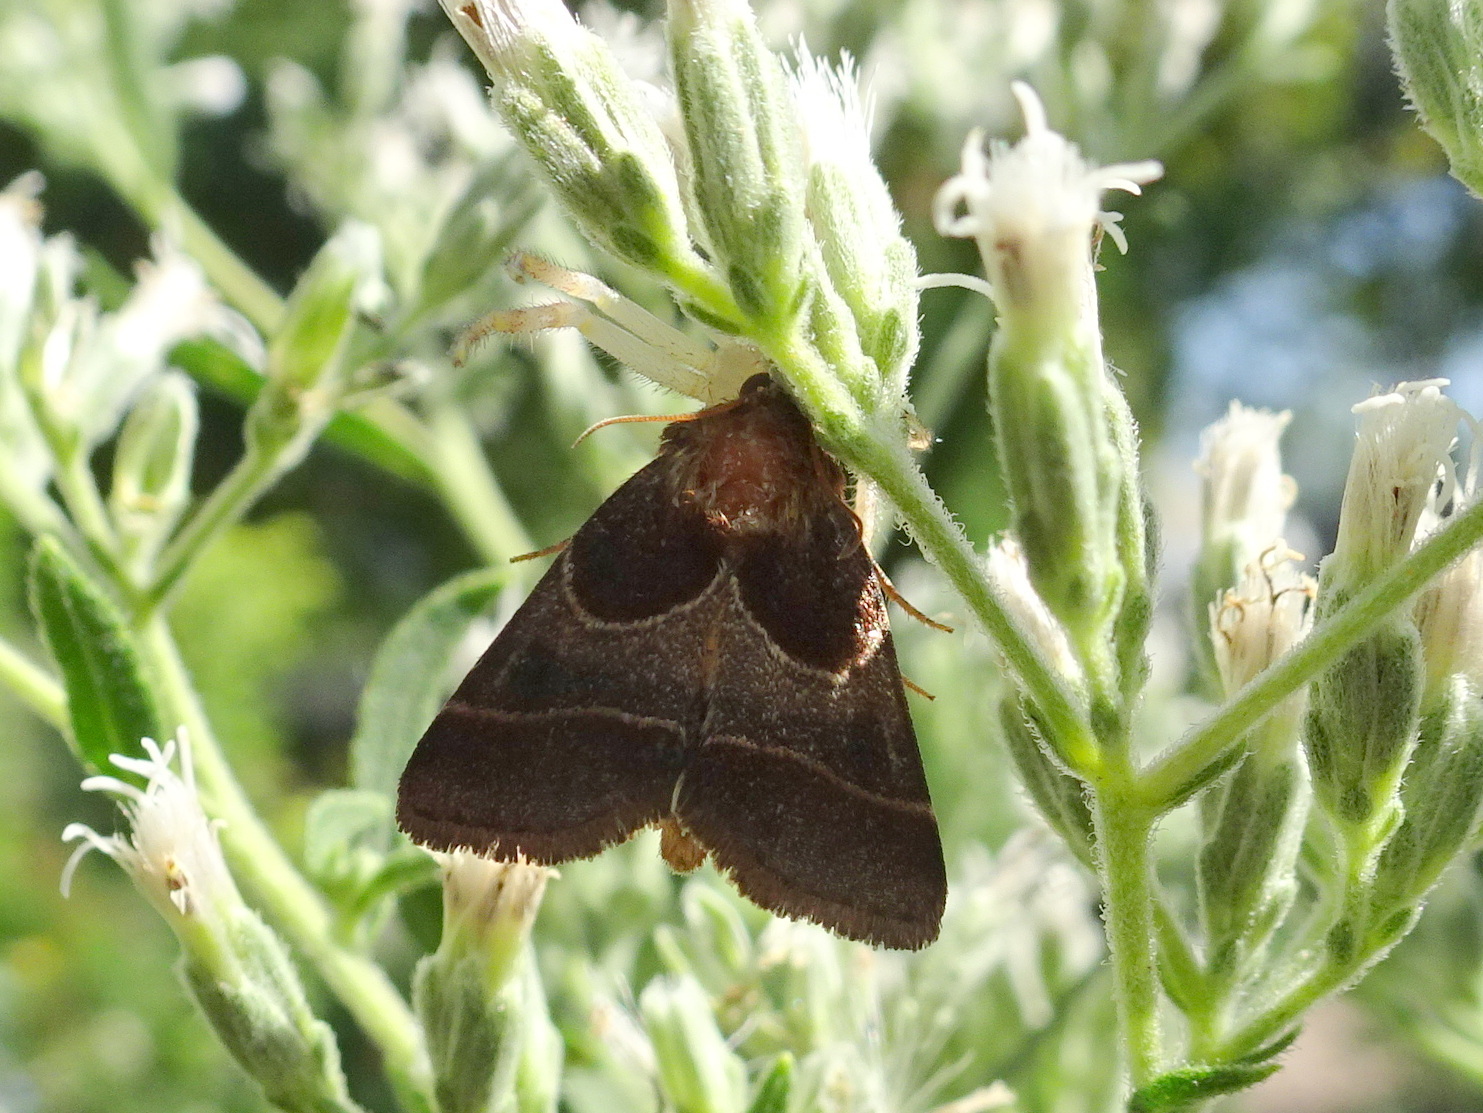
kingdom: Animalia
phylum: Arthropoda
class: Insecta
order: Lepidoptera
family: Noctuidae
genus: Schinia
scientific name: Schinia arcigera
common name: Arcigera flower moth
